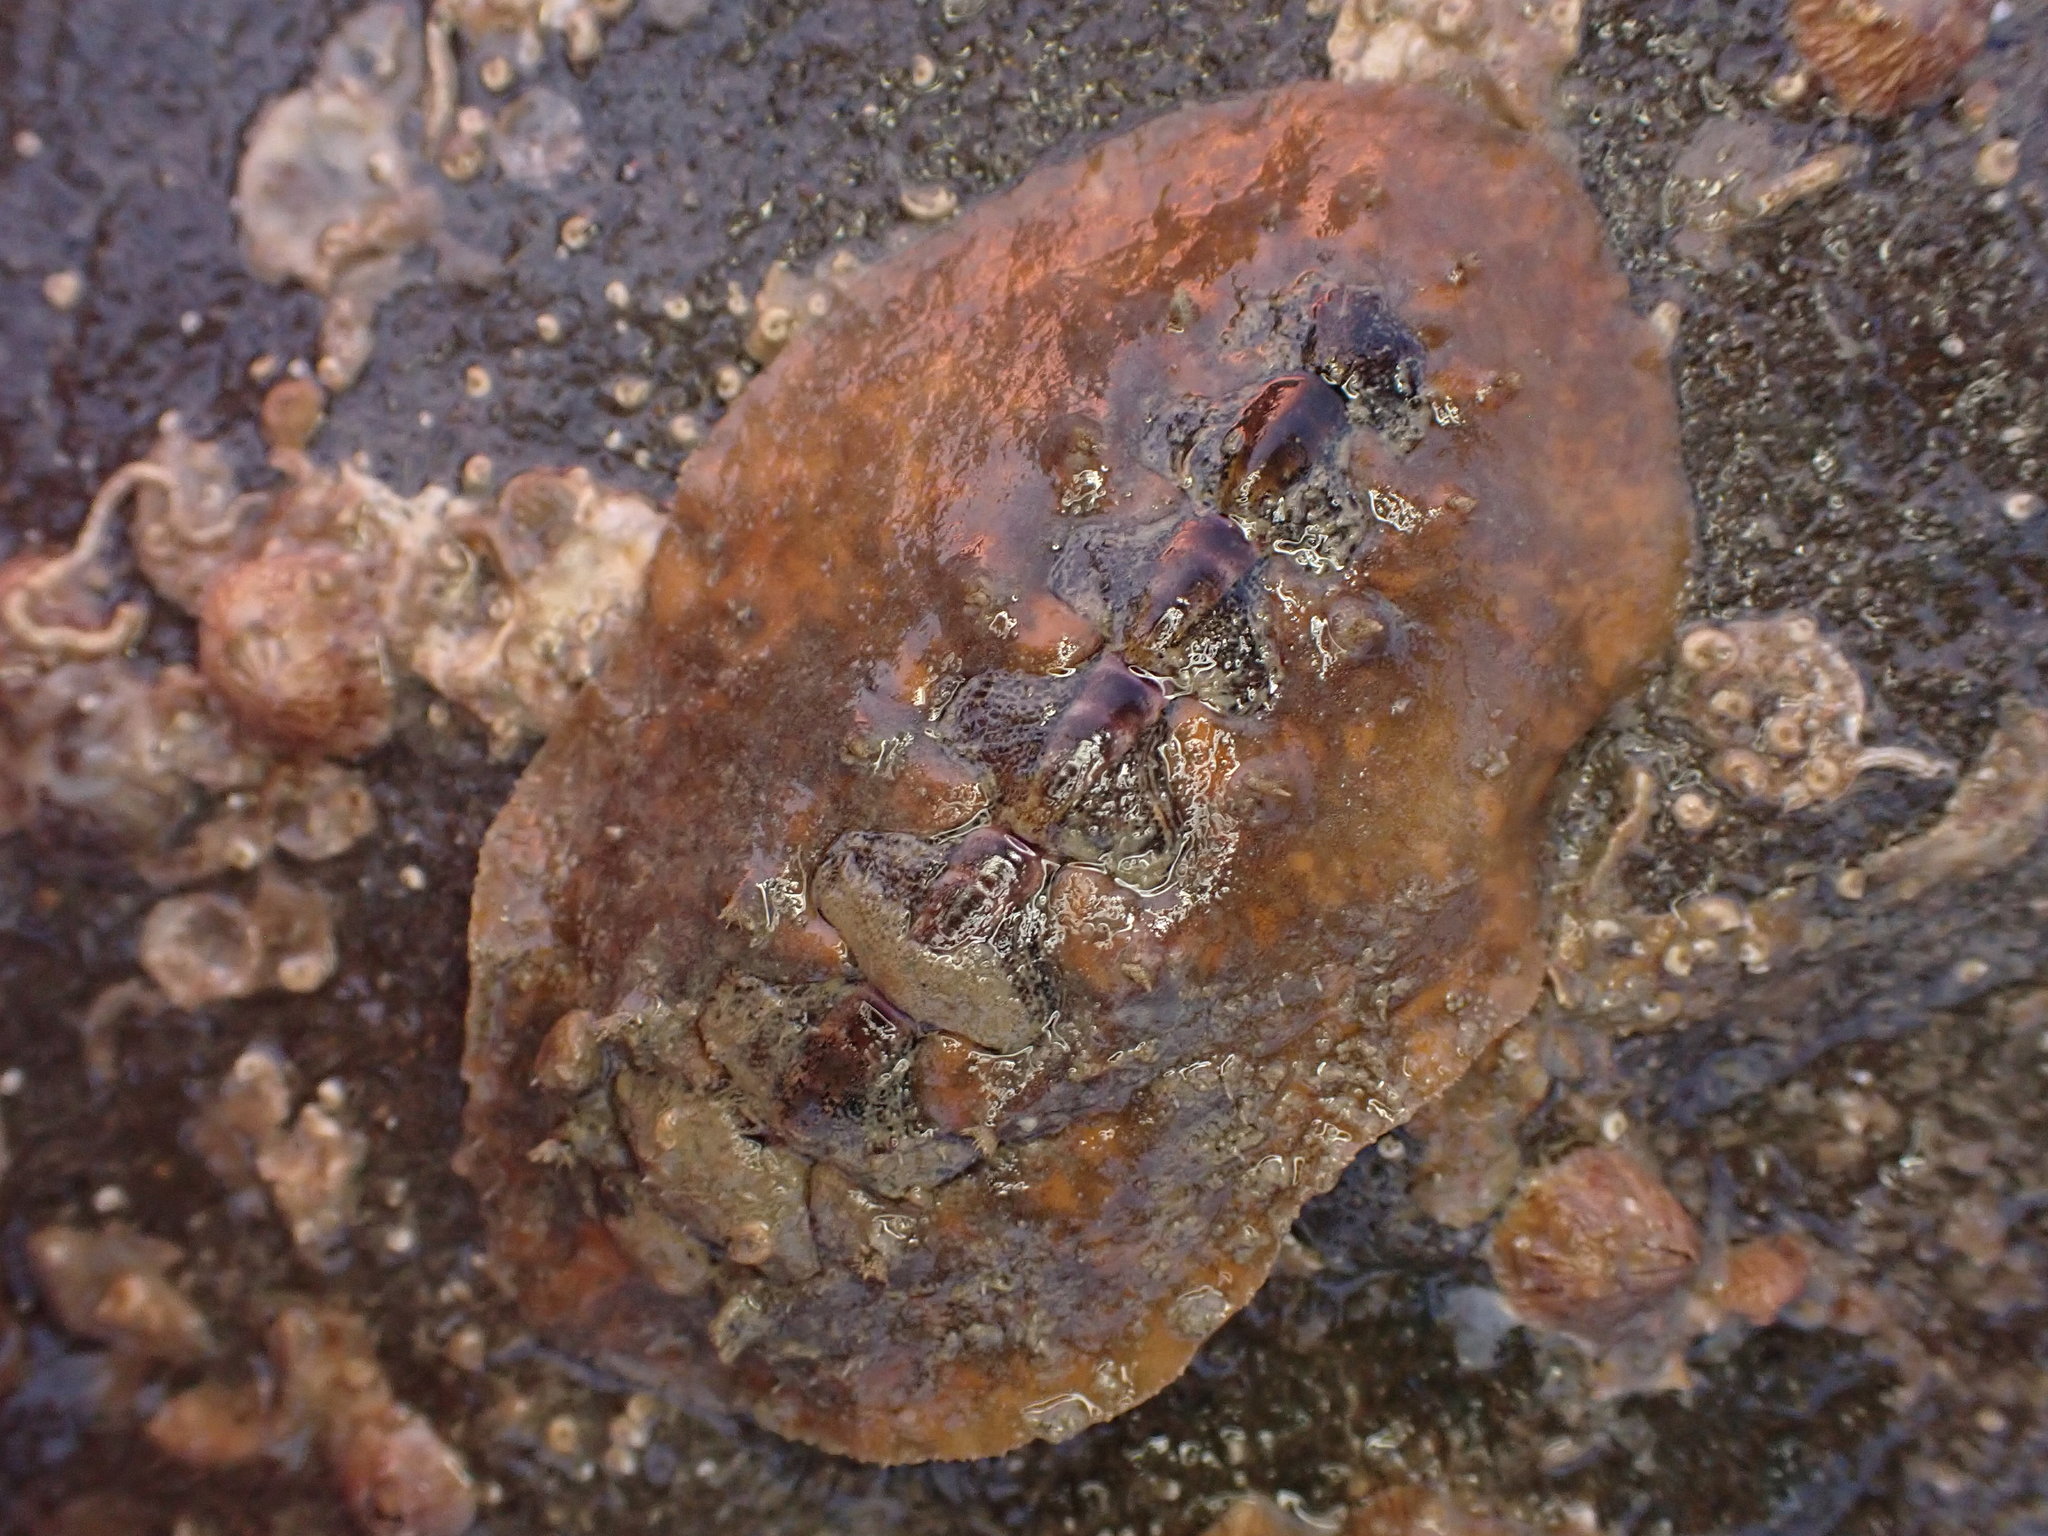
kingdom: Animalia
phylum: Mollusca
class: Polyplacophora
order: Chitonida
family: Acanthochitonidae
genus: Notoplax
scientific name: Notoplax violacea
